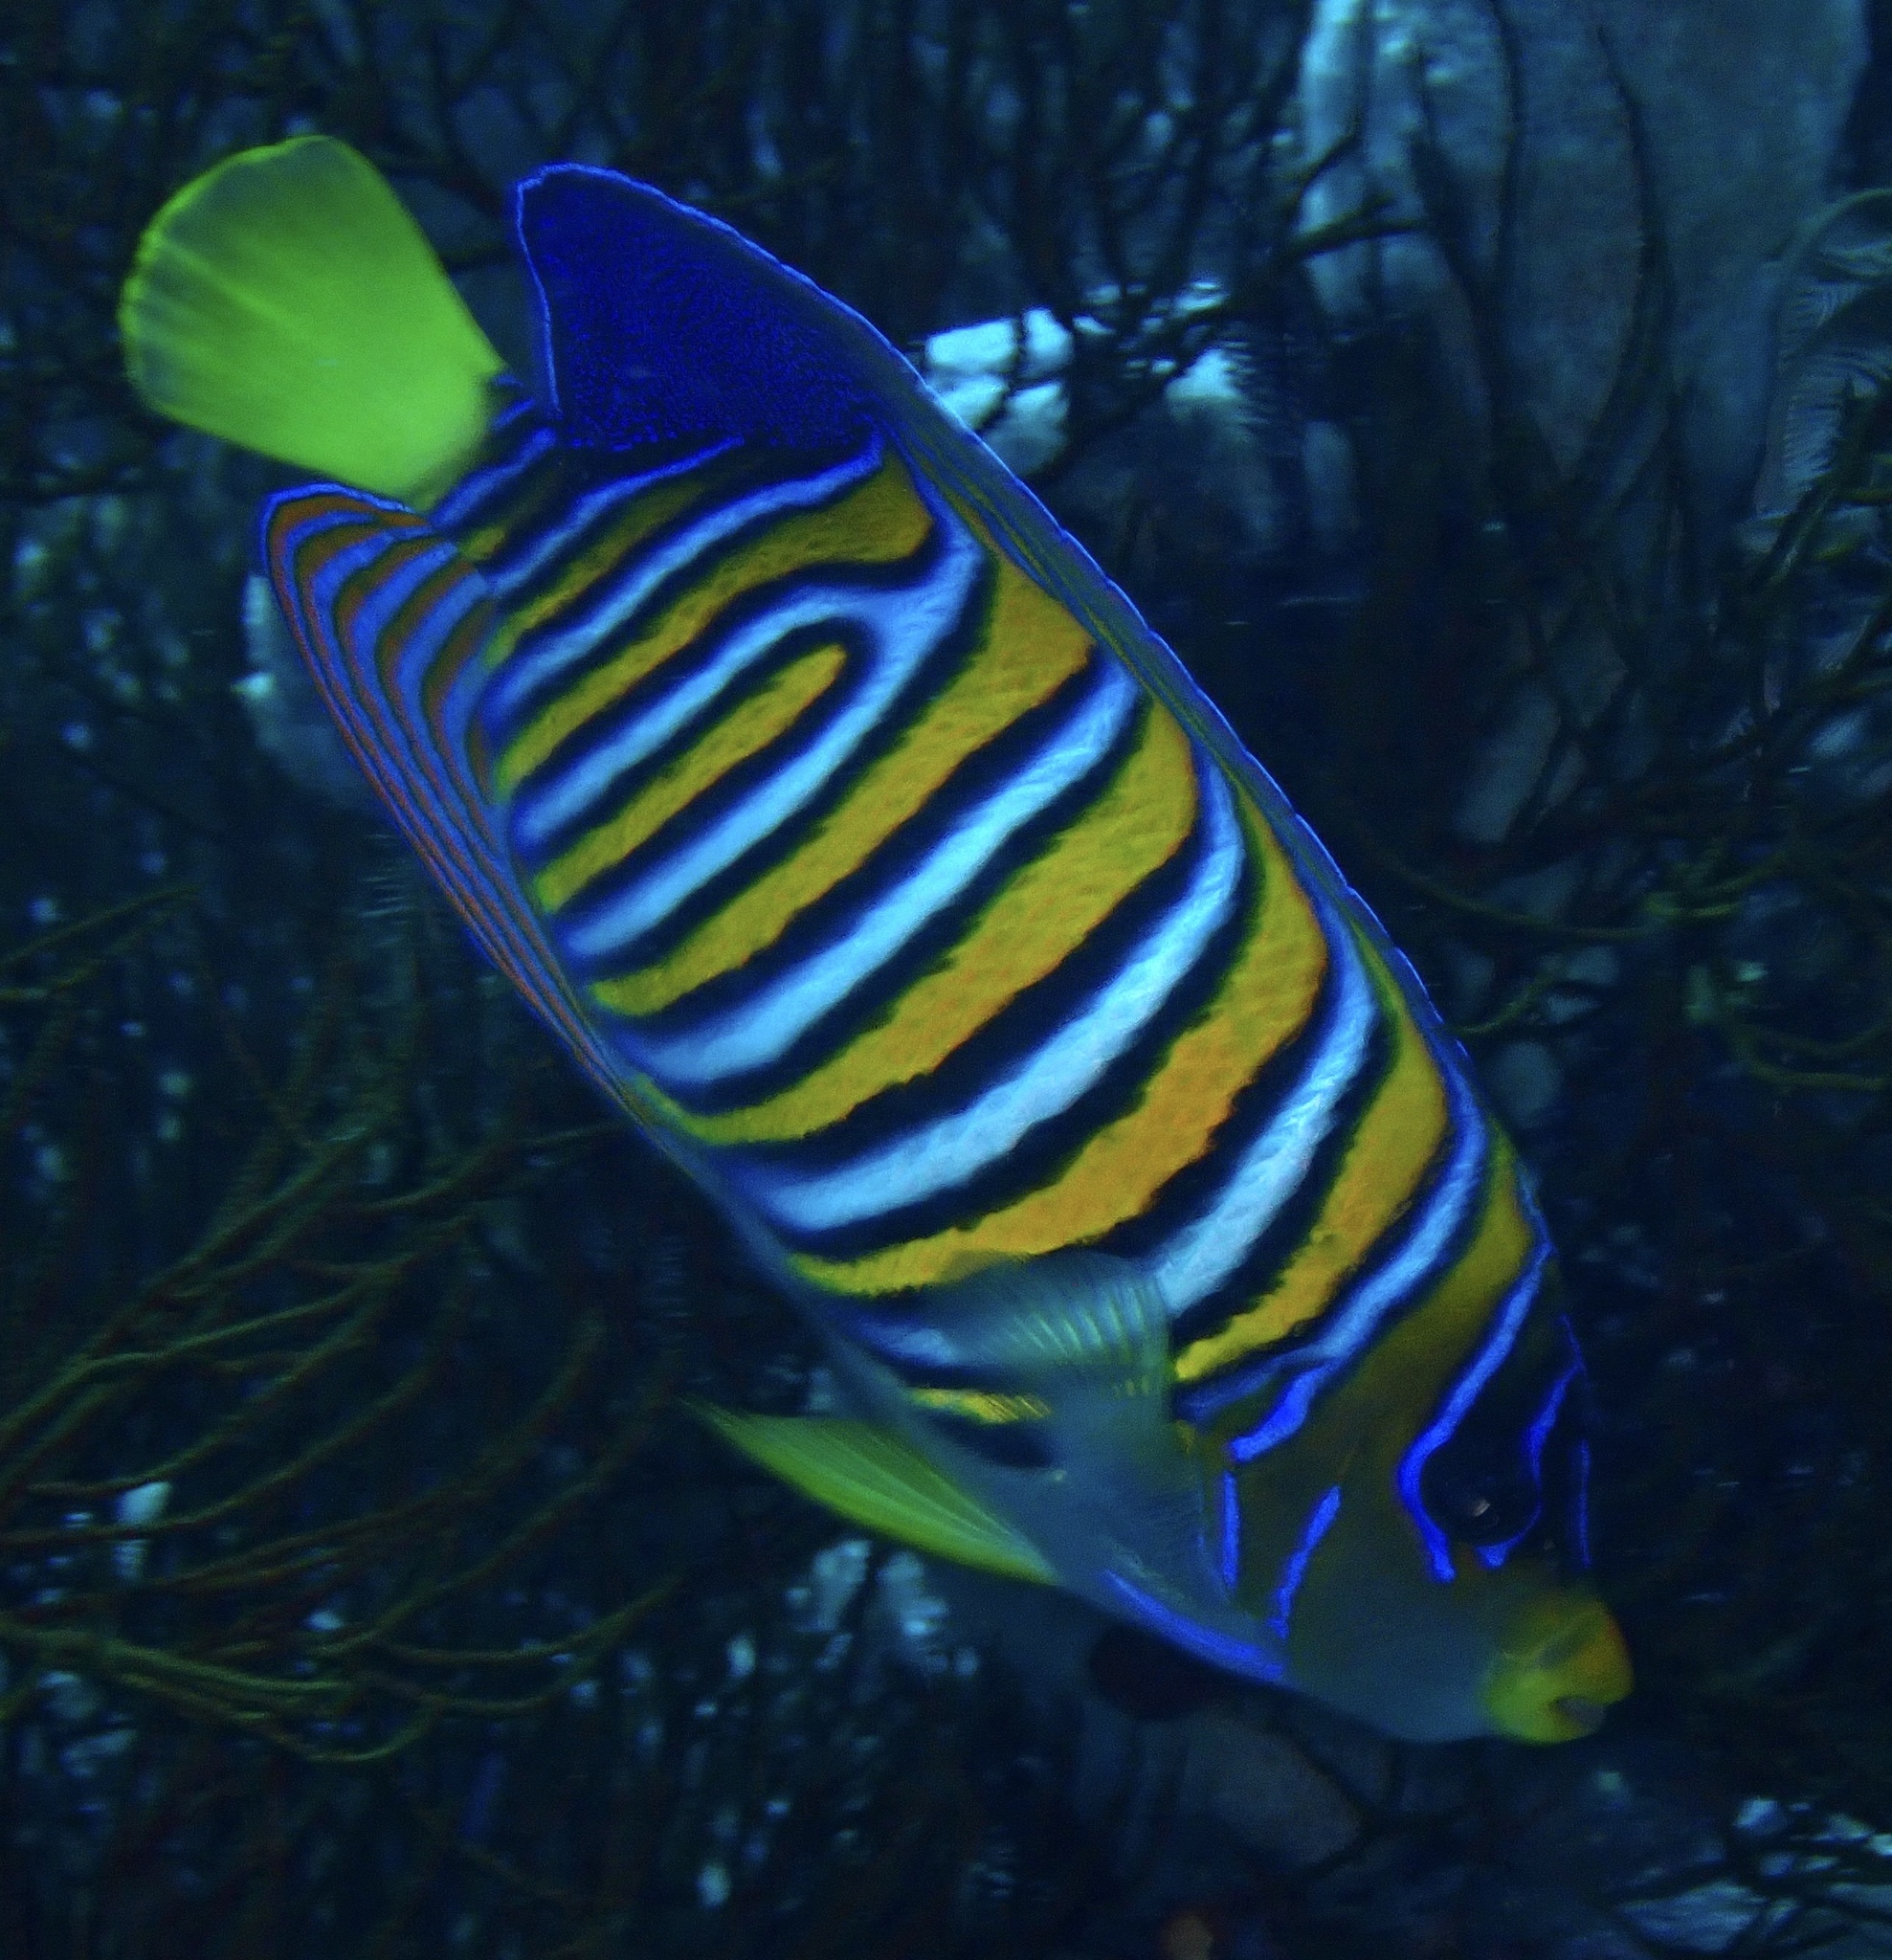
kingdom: Animalia
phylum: Chordata
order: Perciformes
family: Pomacanthidae
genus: Pygoplites
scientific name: Pygoplites diacanthus
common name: Regal angelfish
